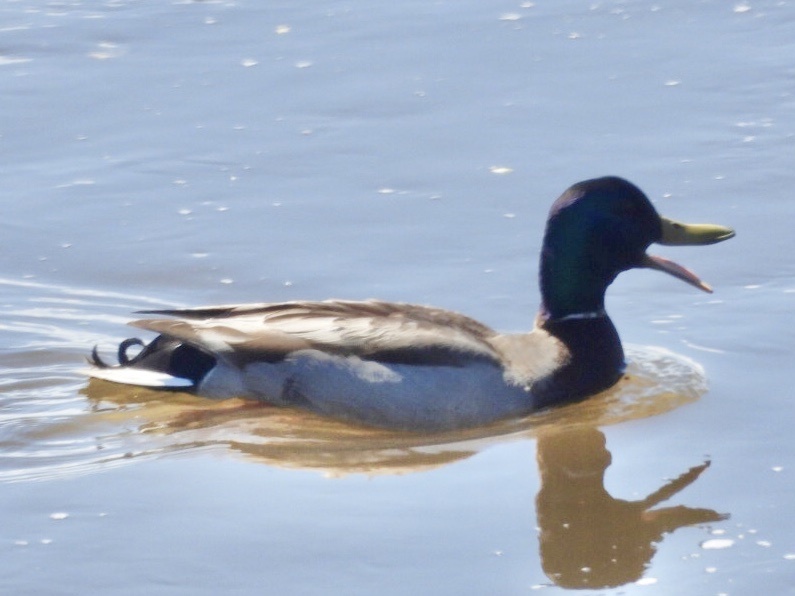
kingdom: Animalia
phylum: Chordata
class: Aves
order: Anseriformes
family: Anatidae
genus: Anas
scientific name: Anas platyrhynchos
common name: Mallard
